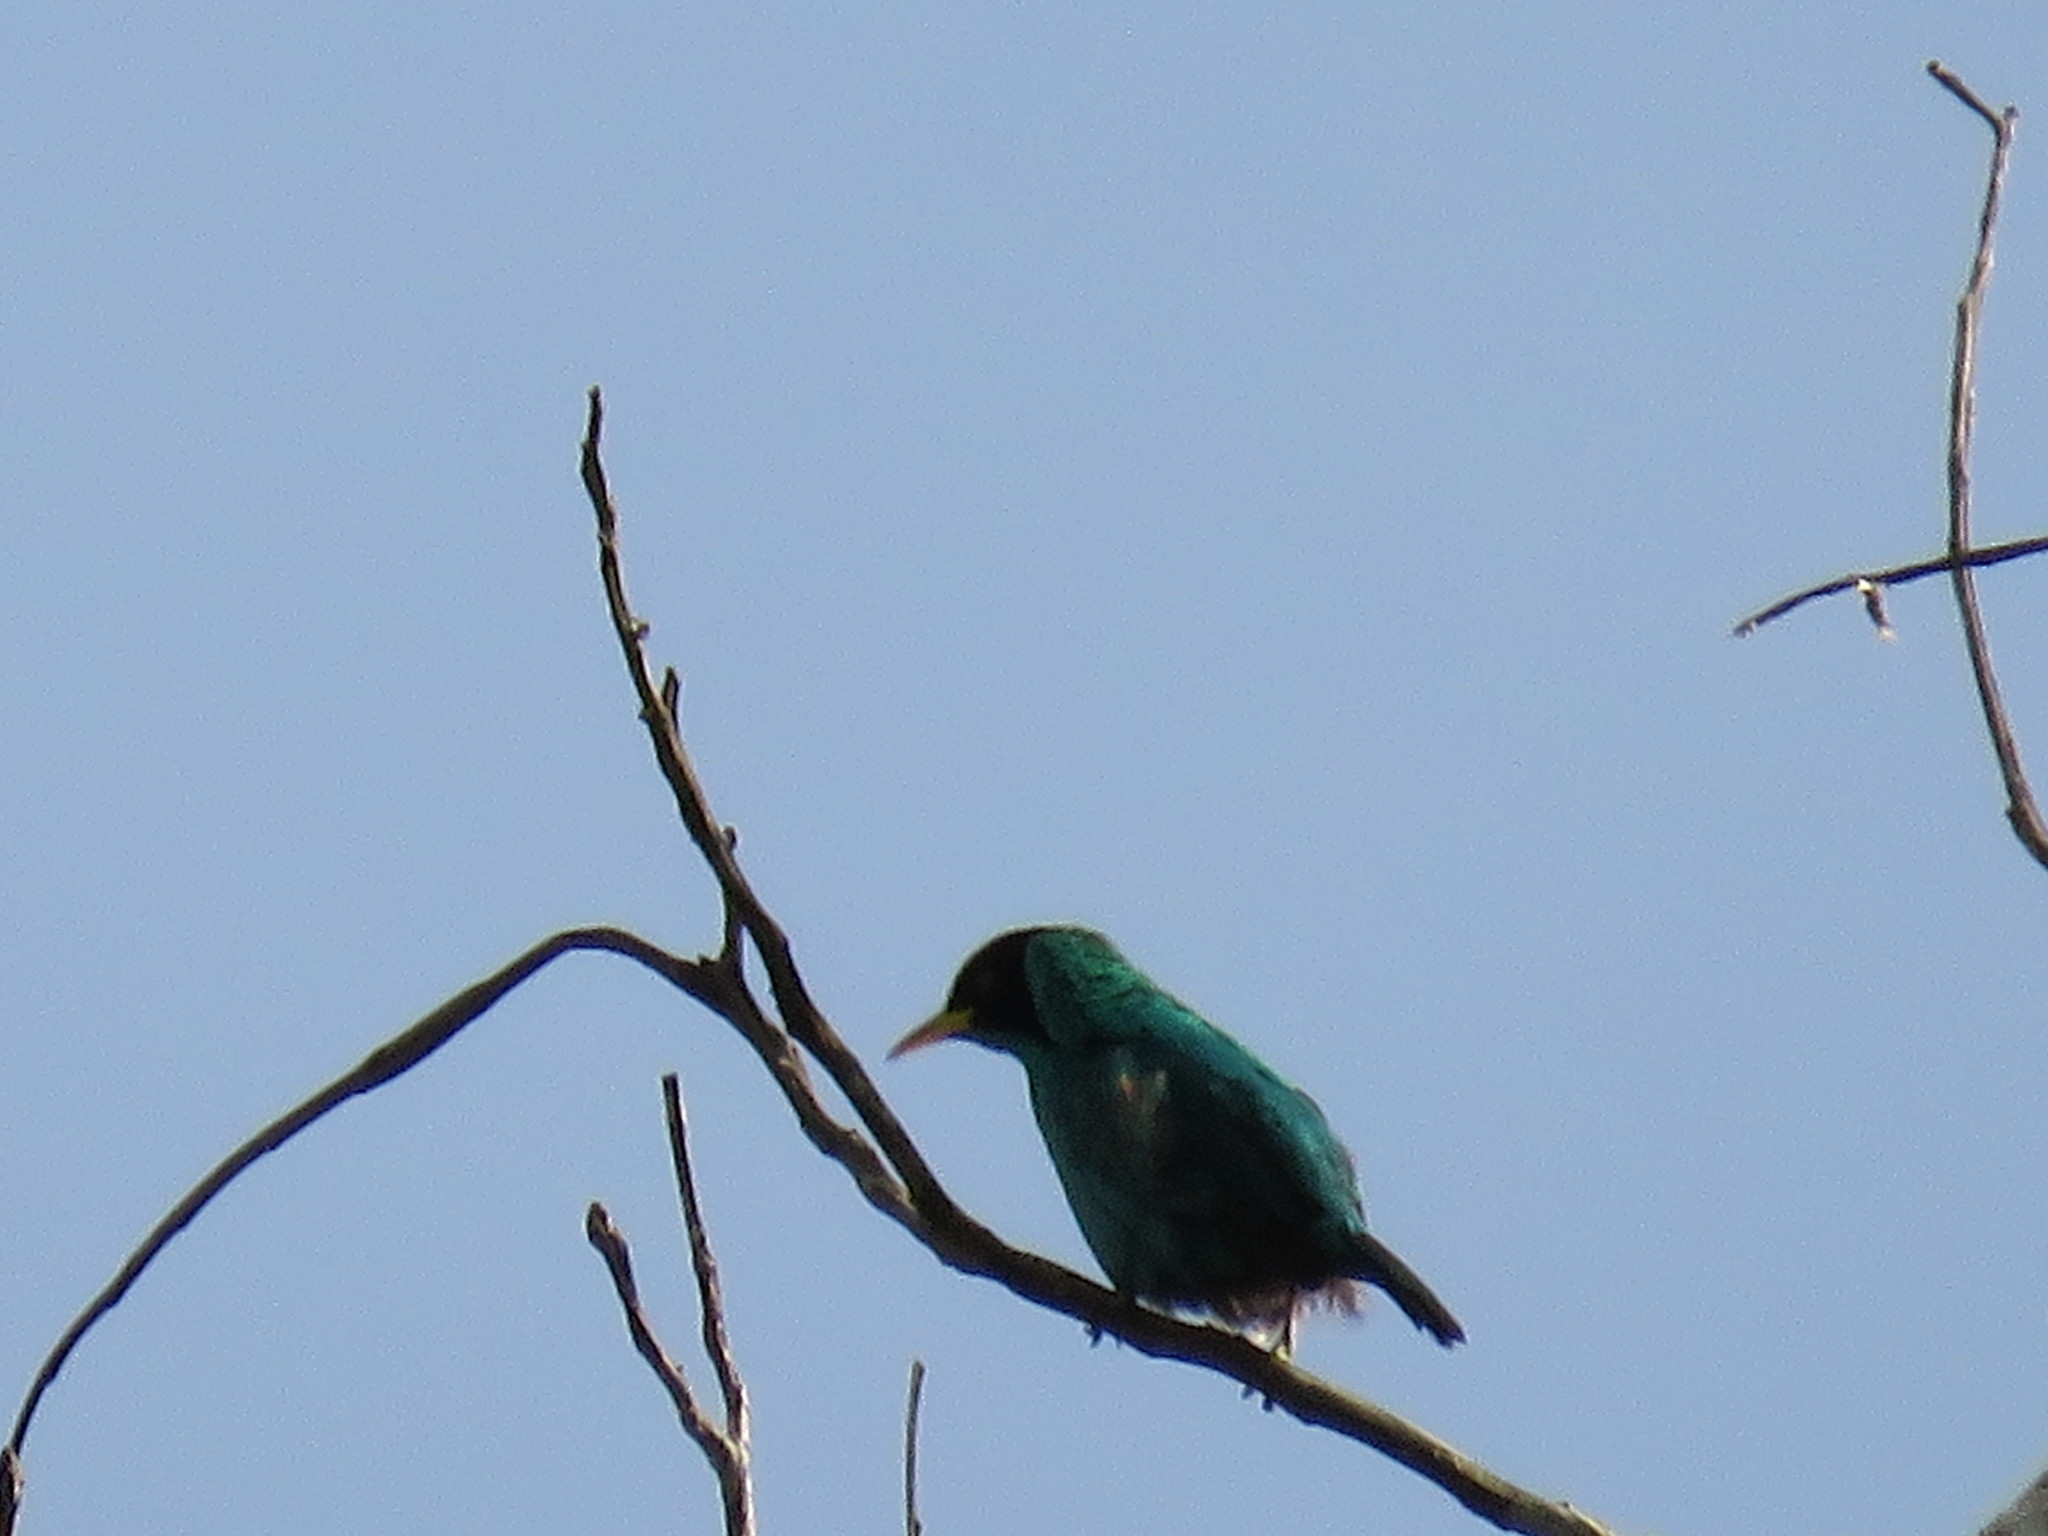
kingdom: Animalia
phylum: Chordata
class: Aves
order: Passeriformes
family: Thraupidae
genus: Chlorophanes
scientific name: Chlorophanes spiza
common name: Green honeycreeper
